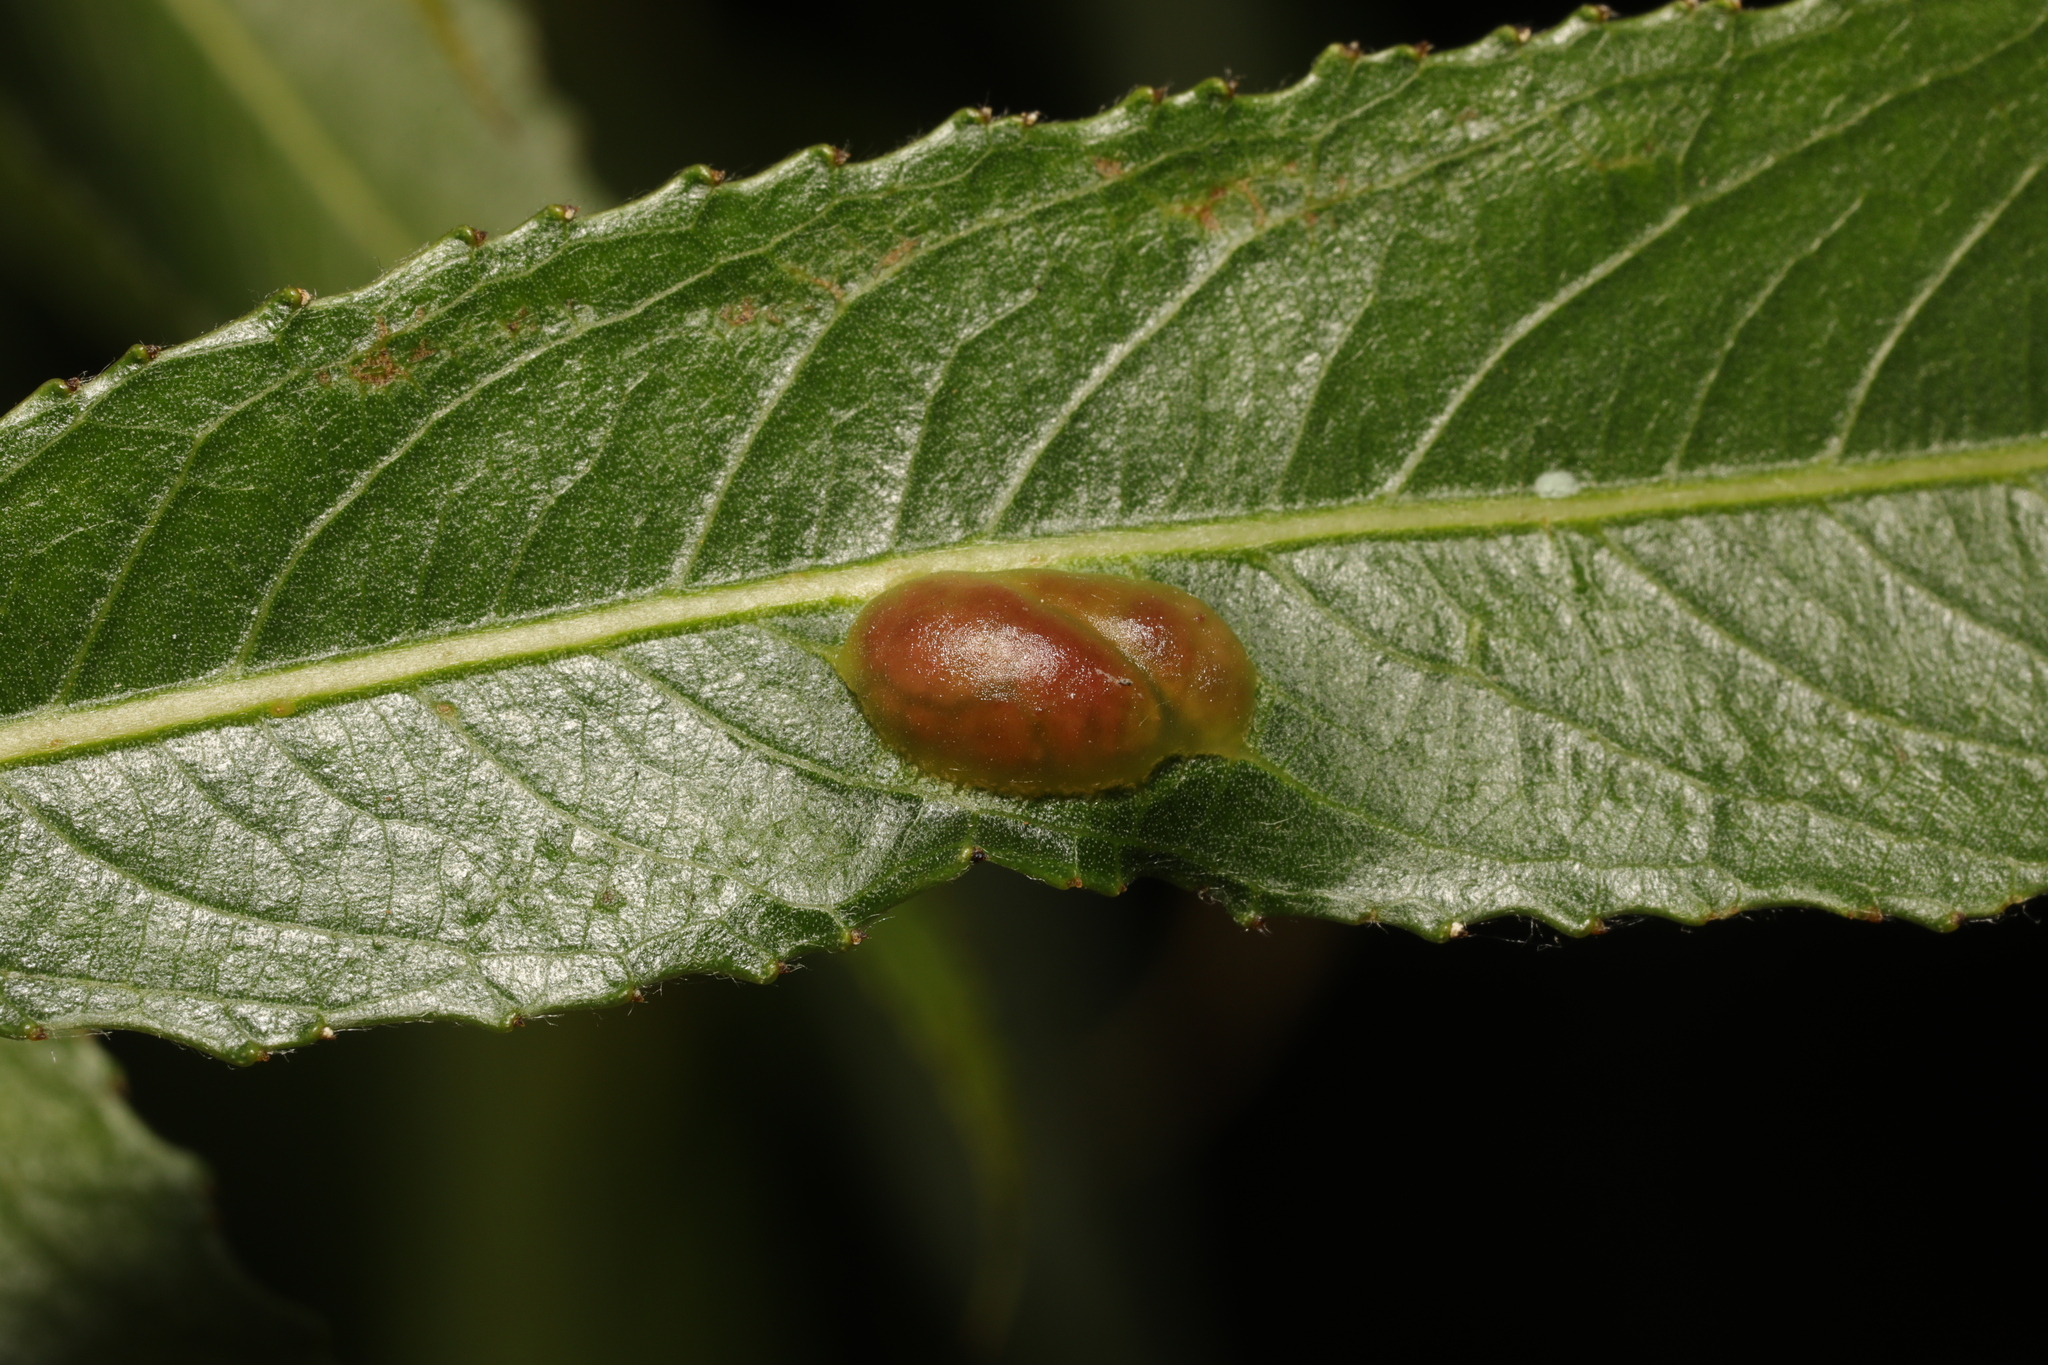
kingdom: Animalia
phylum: Arthropoda
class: Insecta
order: Hymenoptera
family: Tenthredinidae
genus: Pontania
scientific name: Pontania proxima
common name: Common sawfly
